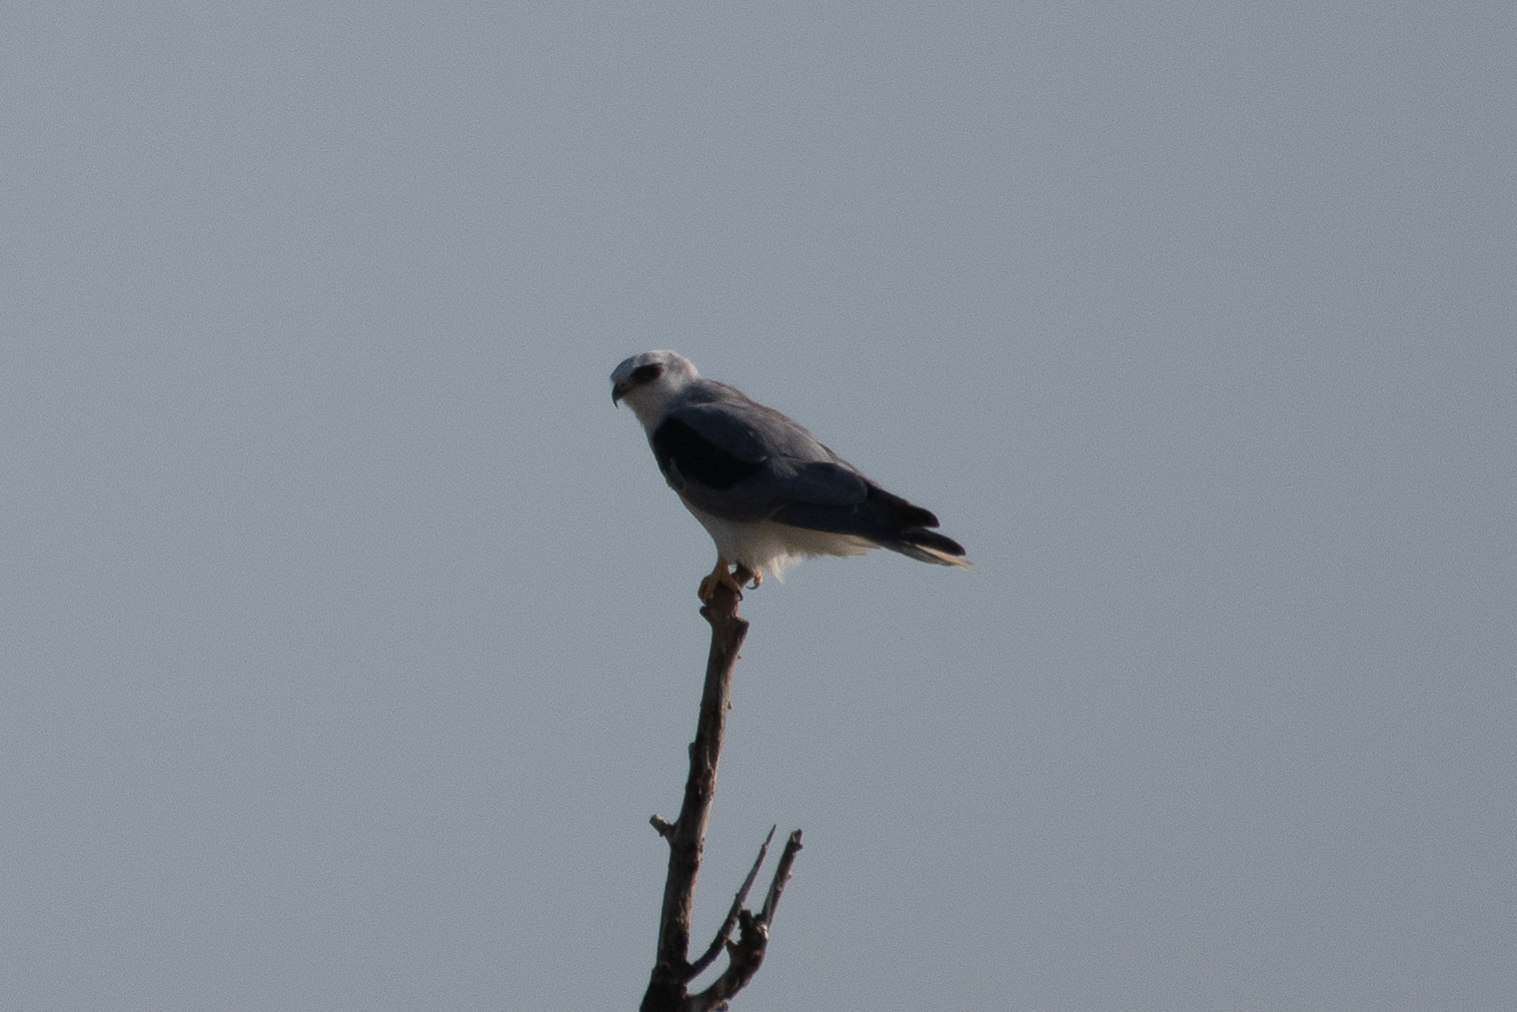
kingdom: Animalia
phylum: Chordata
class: Aves
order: Accipitriformes
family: Accipitridae
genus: Elanus
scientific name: Elanus leucurus
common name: White-tailed kite
